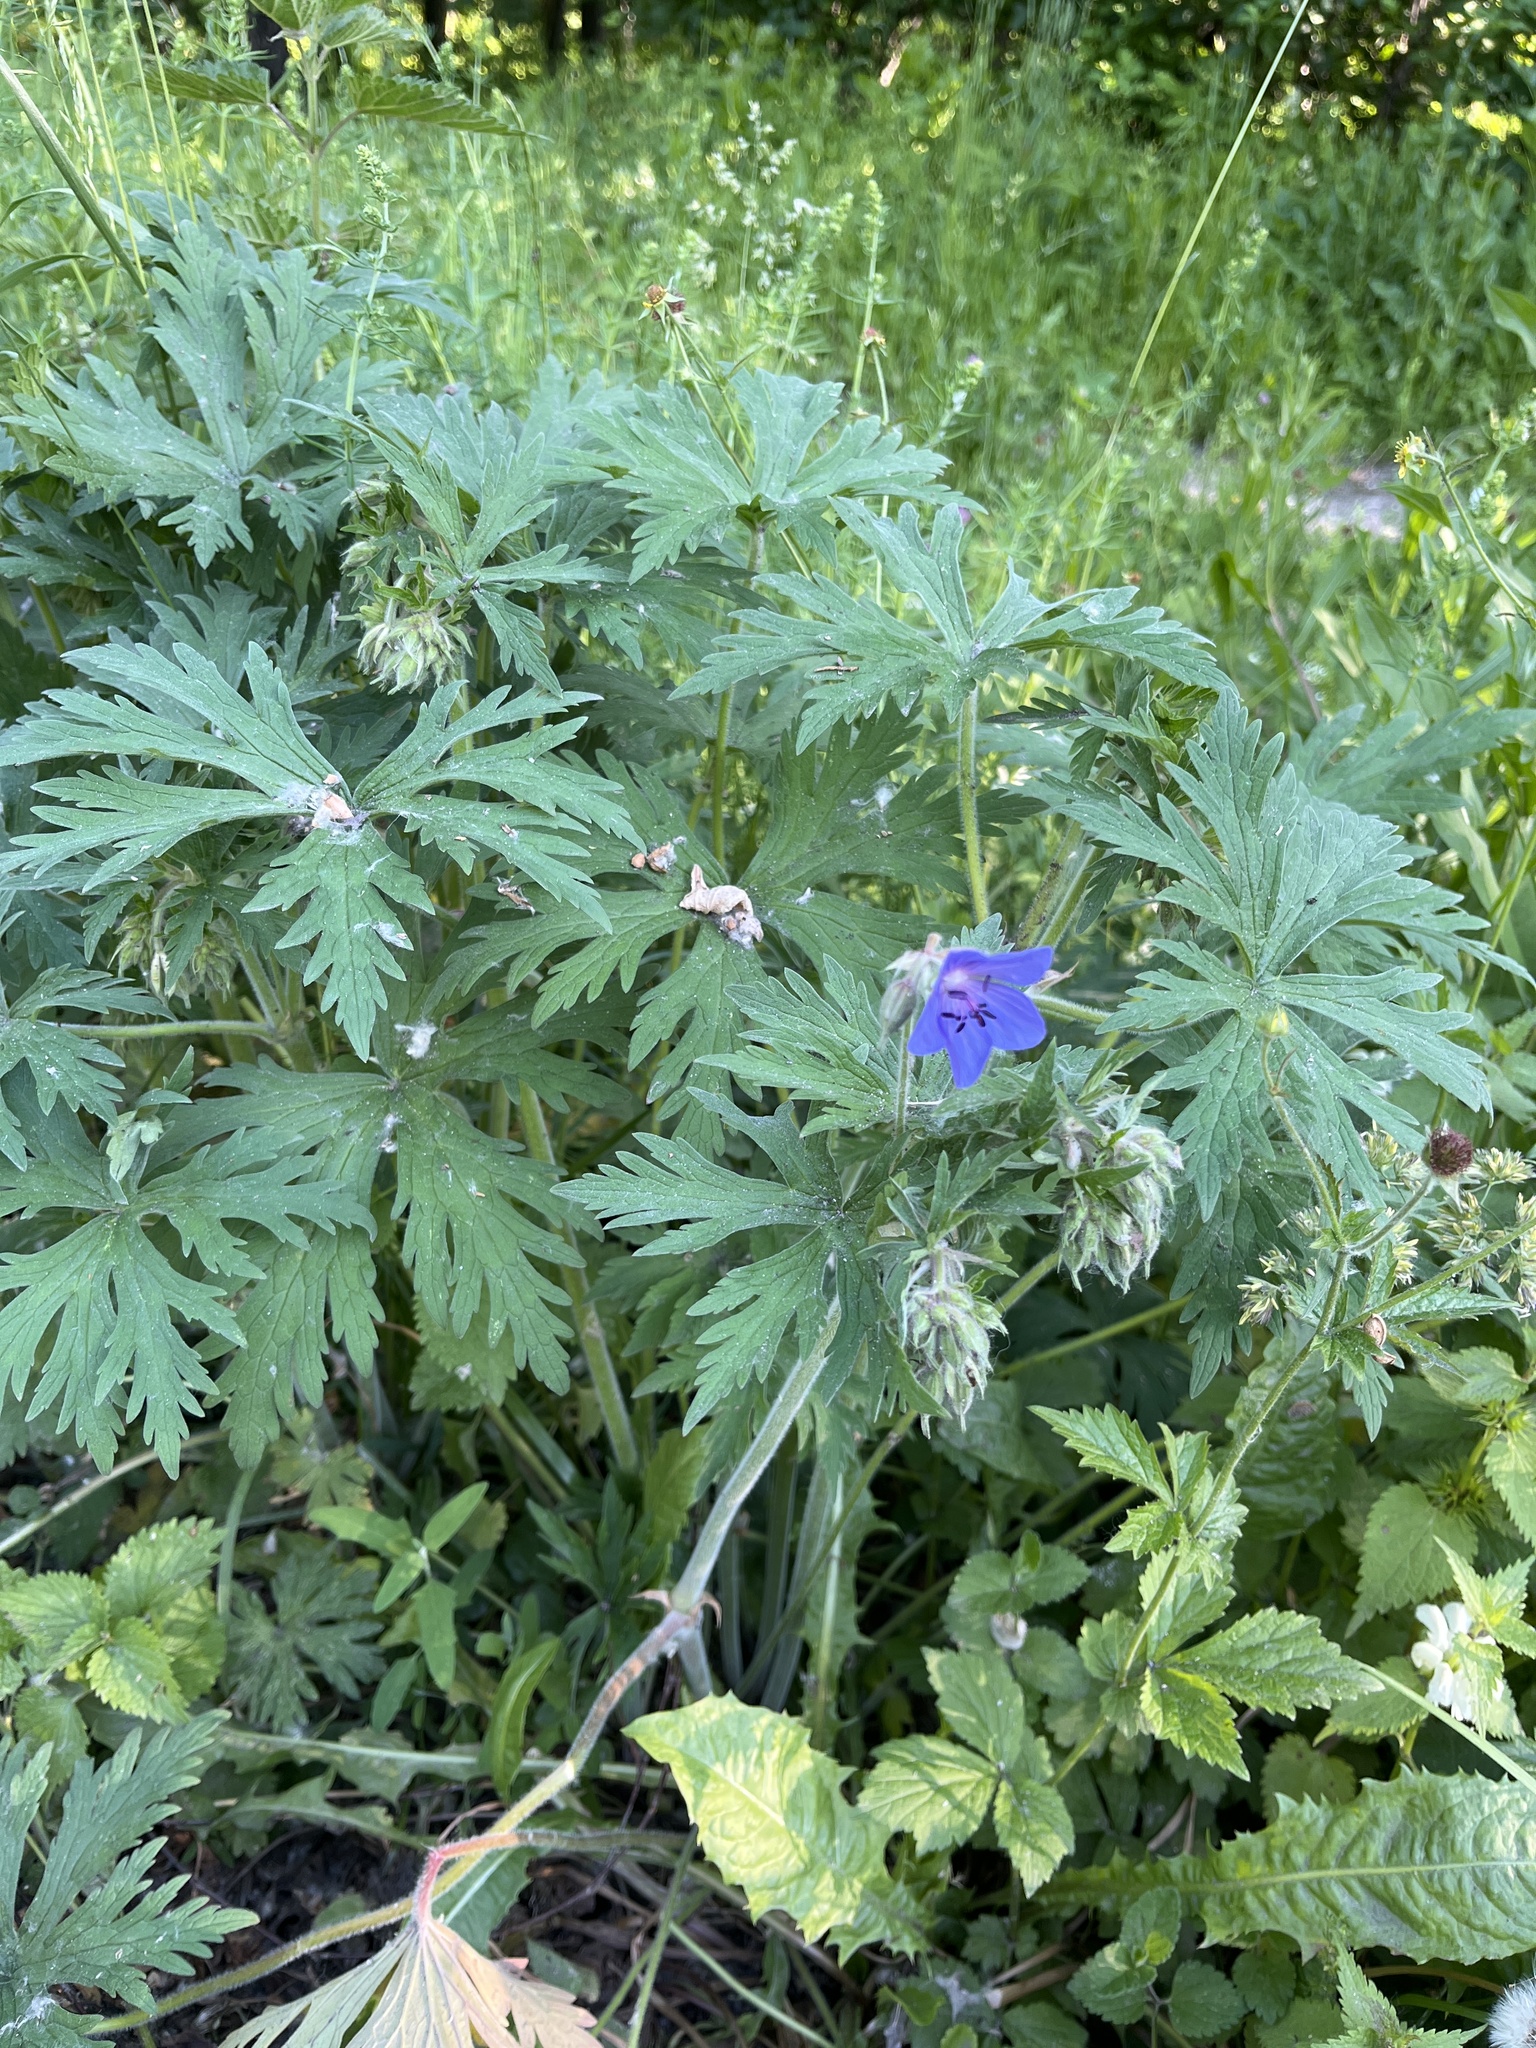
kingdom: Plantae
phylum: Tracheophyta
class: Magnoliopsida
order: Geraniales
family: Geraniaceae
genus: Geranium
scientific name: Geranium pratense
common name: Meadow crane's-bill
